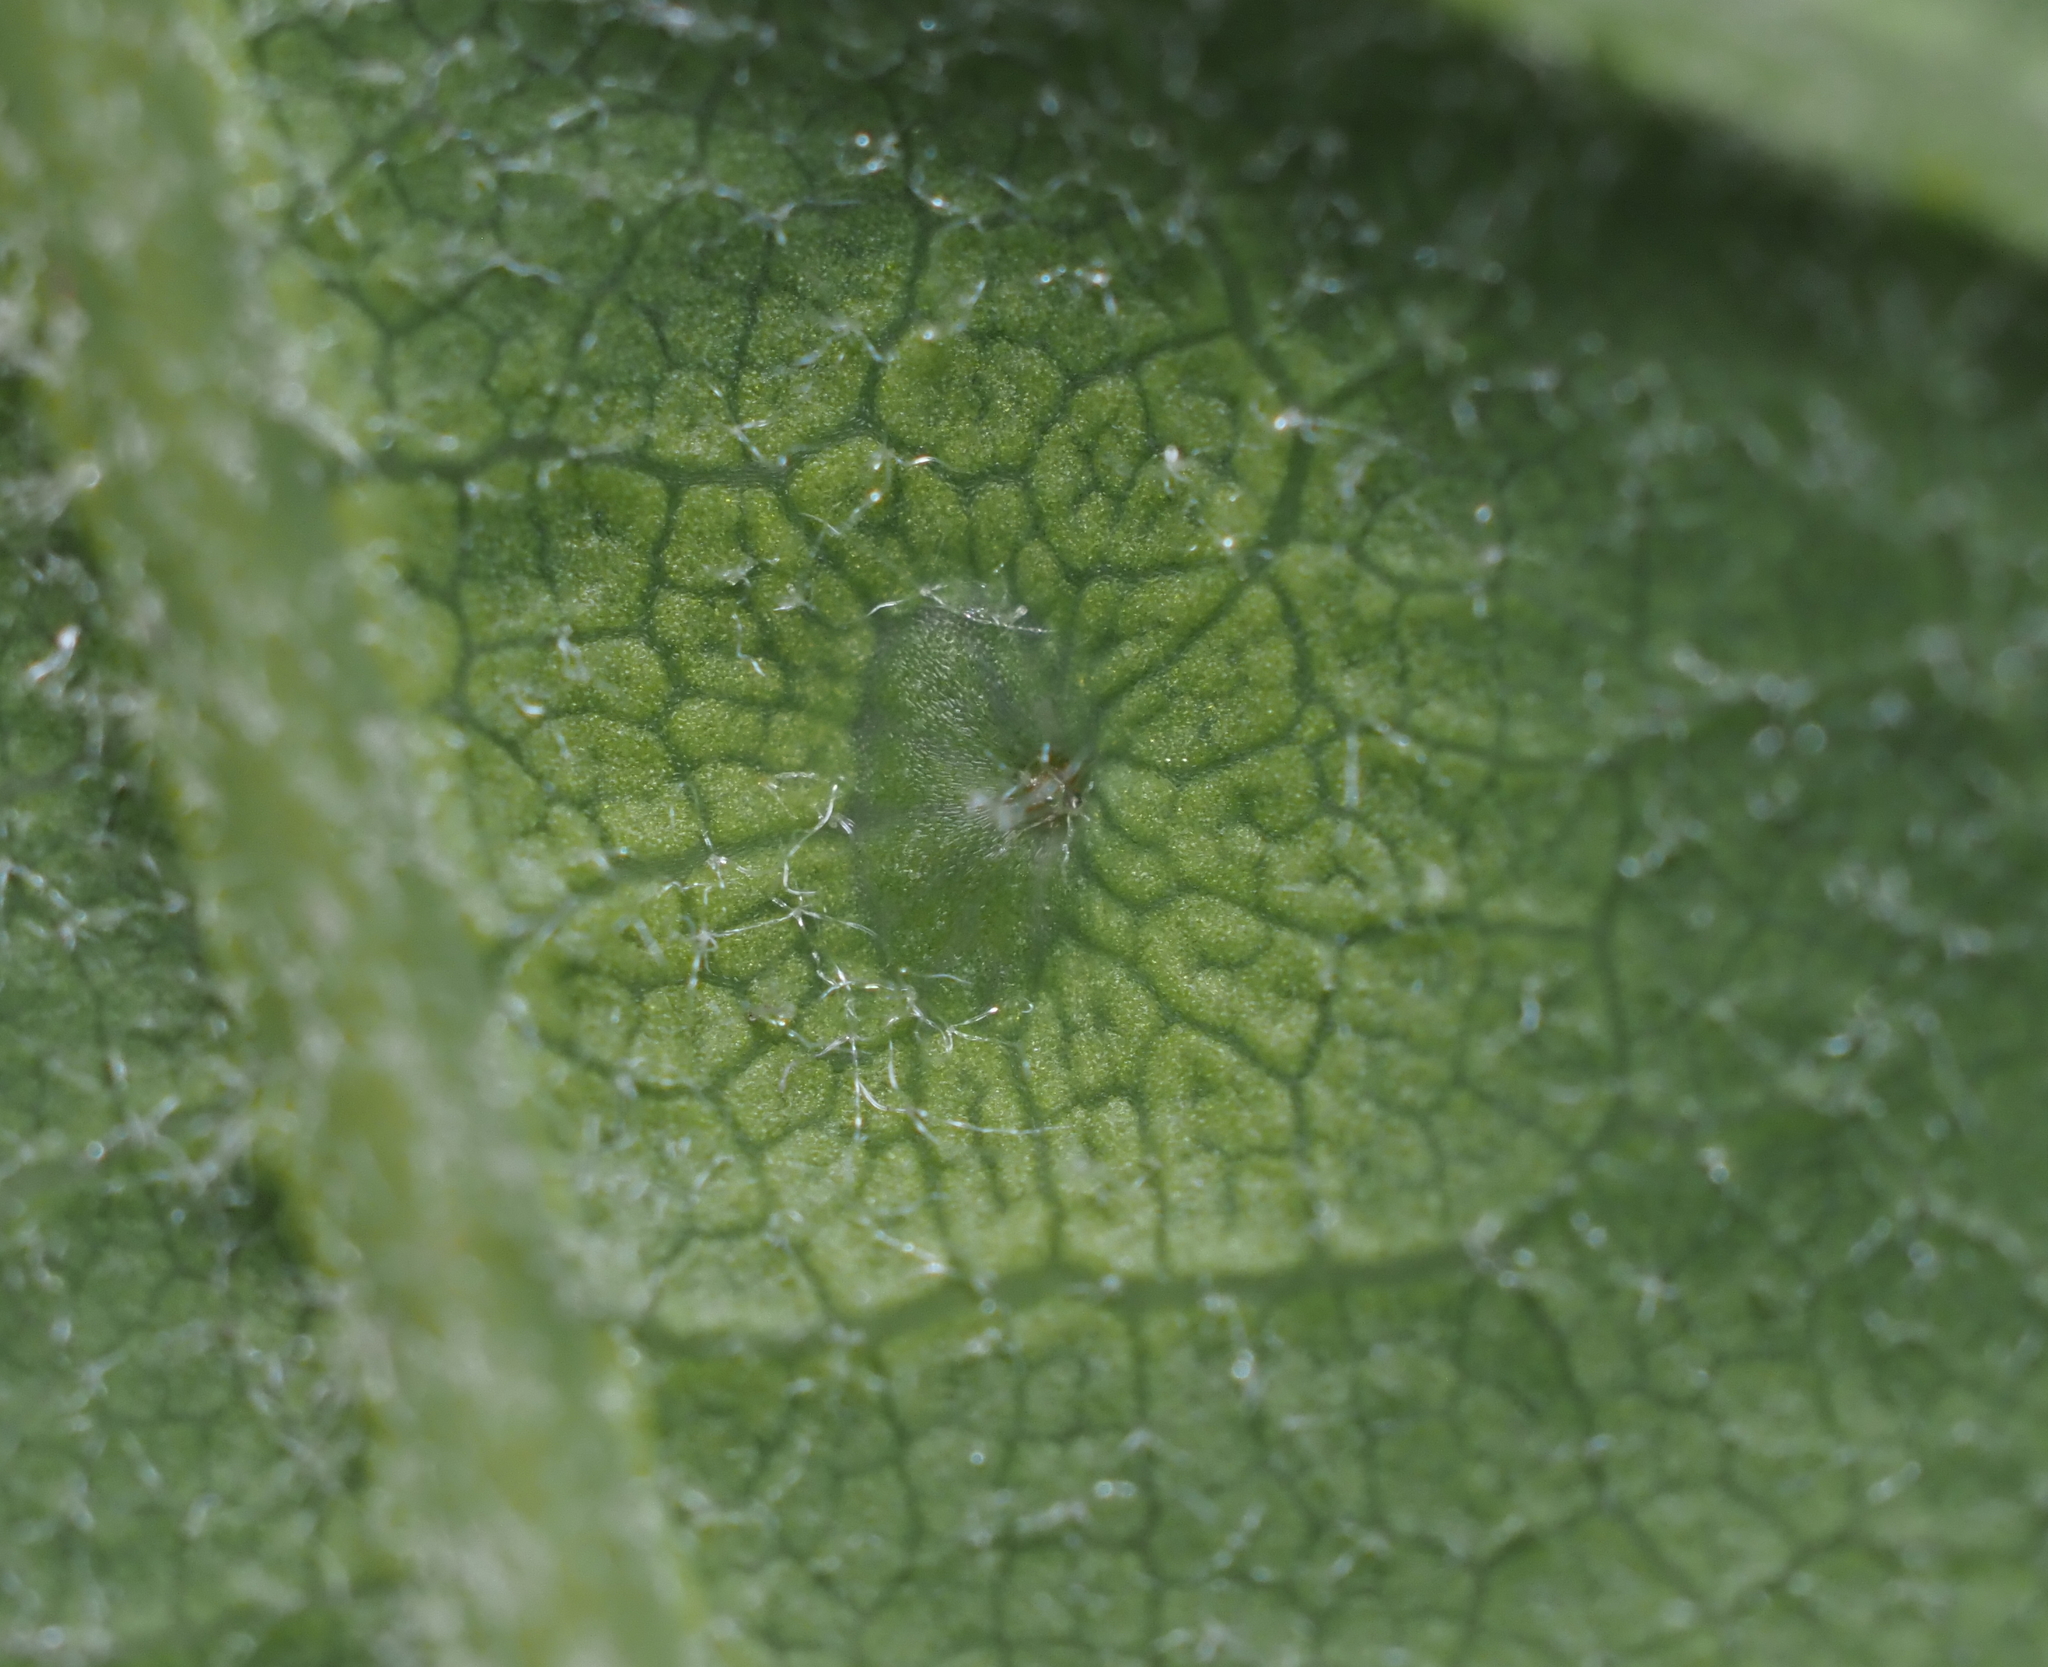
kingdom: Animalia
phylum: Arthropoda
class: Insecta
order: Hymenoptera
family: Cynipidae
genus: Neuroterus
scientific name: Neuroterus quercusverrucarum
